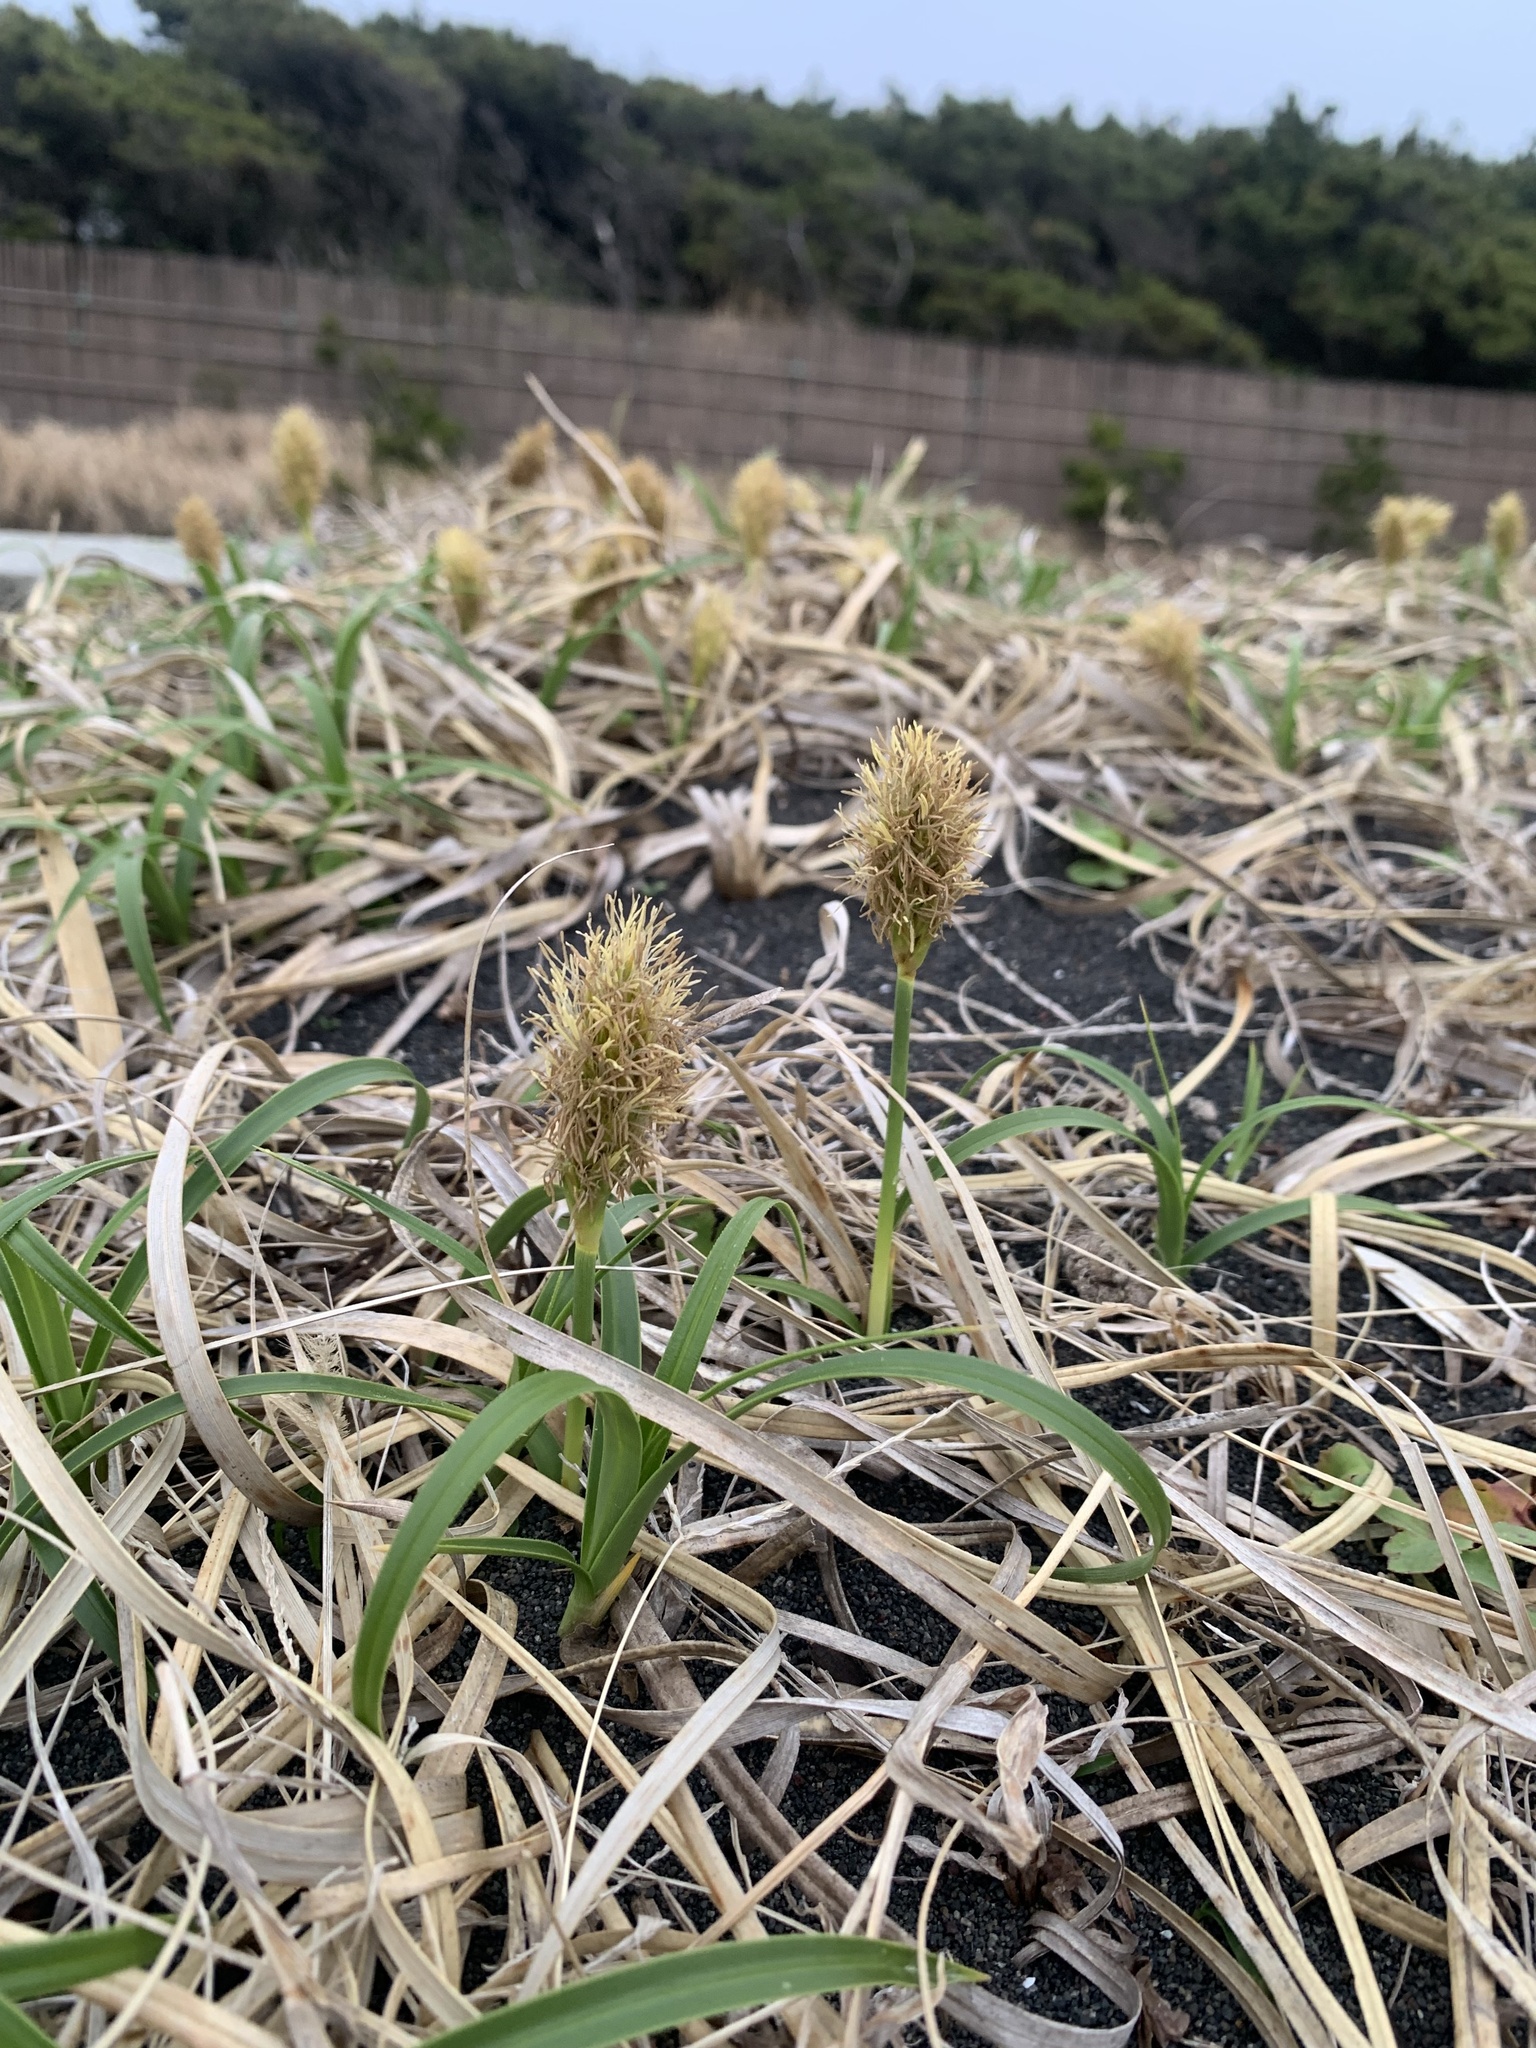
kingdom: Plantae
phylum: Tracheophyta
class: Liliopsida
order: Poales
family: Cyperaceae
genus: Carex
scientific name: Carex kobomugi
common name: Japanese sedge
